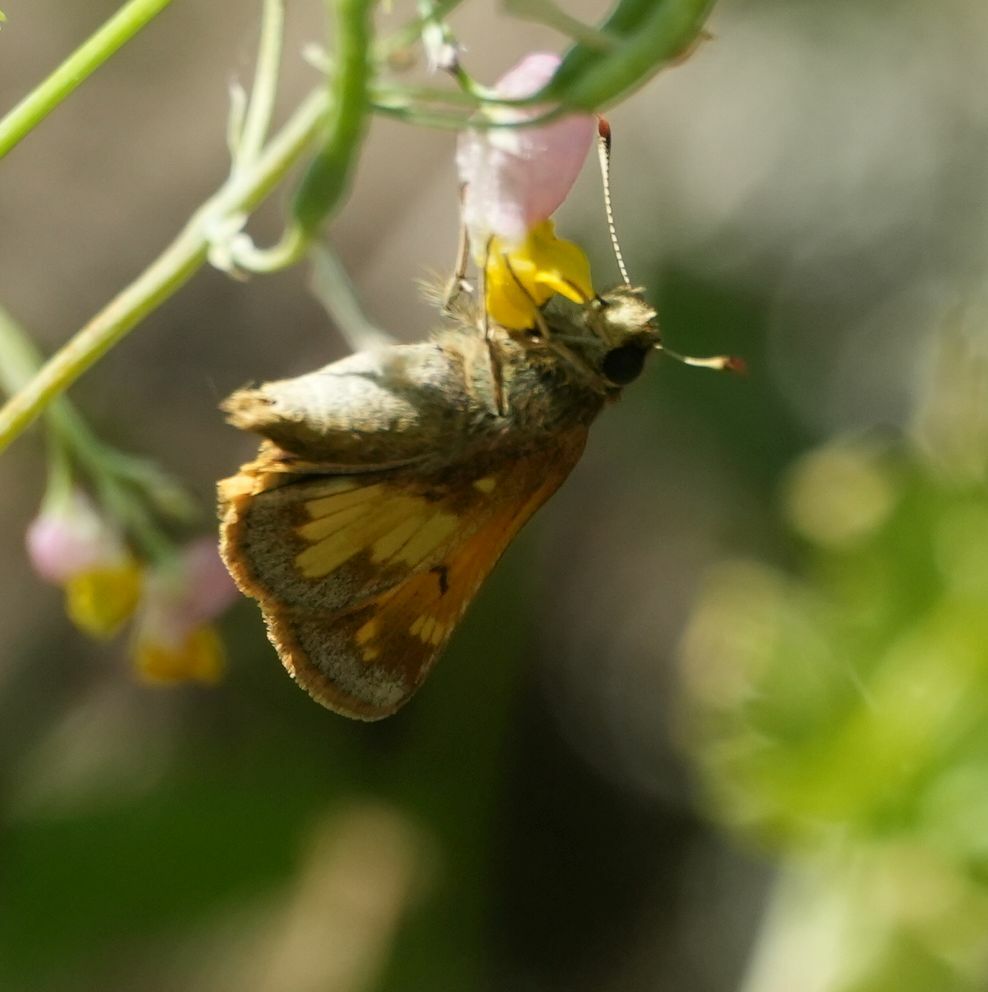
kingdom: Animalia
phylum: Arthropoda
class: Insecta
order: Lepidoptera
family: Hesperiidae
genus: Lon
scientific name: Lon hobomok
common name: Hobomok skipper
